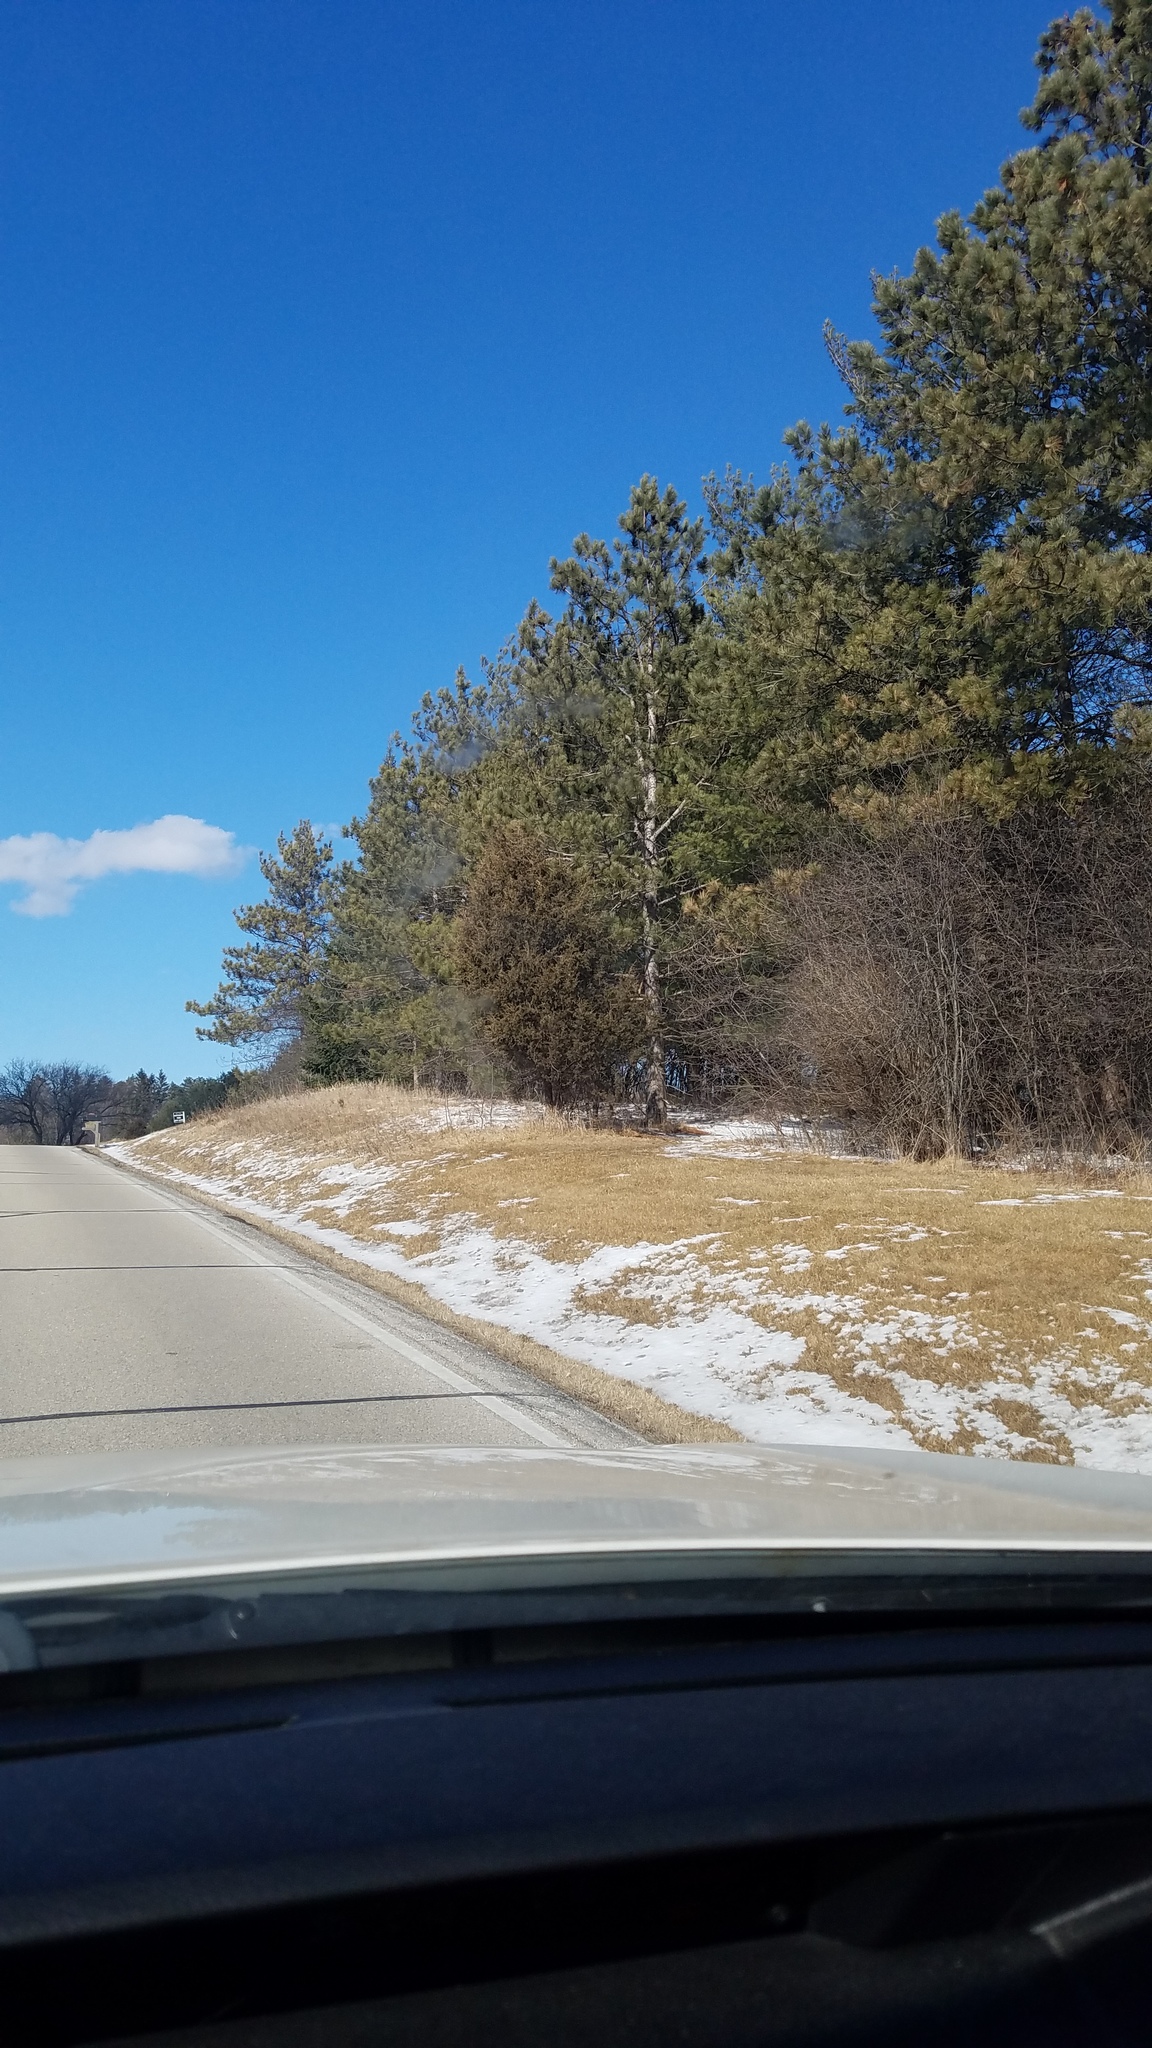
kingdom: Plantae
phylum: Tracheophyta
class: Pinopsida
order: Pinales
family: Cupressaceae
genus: Juniperus
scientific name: Juniperus virginiana
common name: Red juniper
